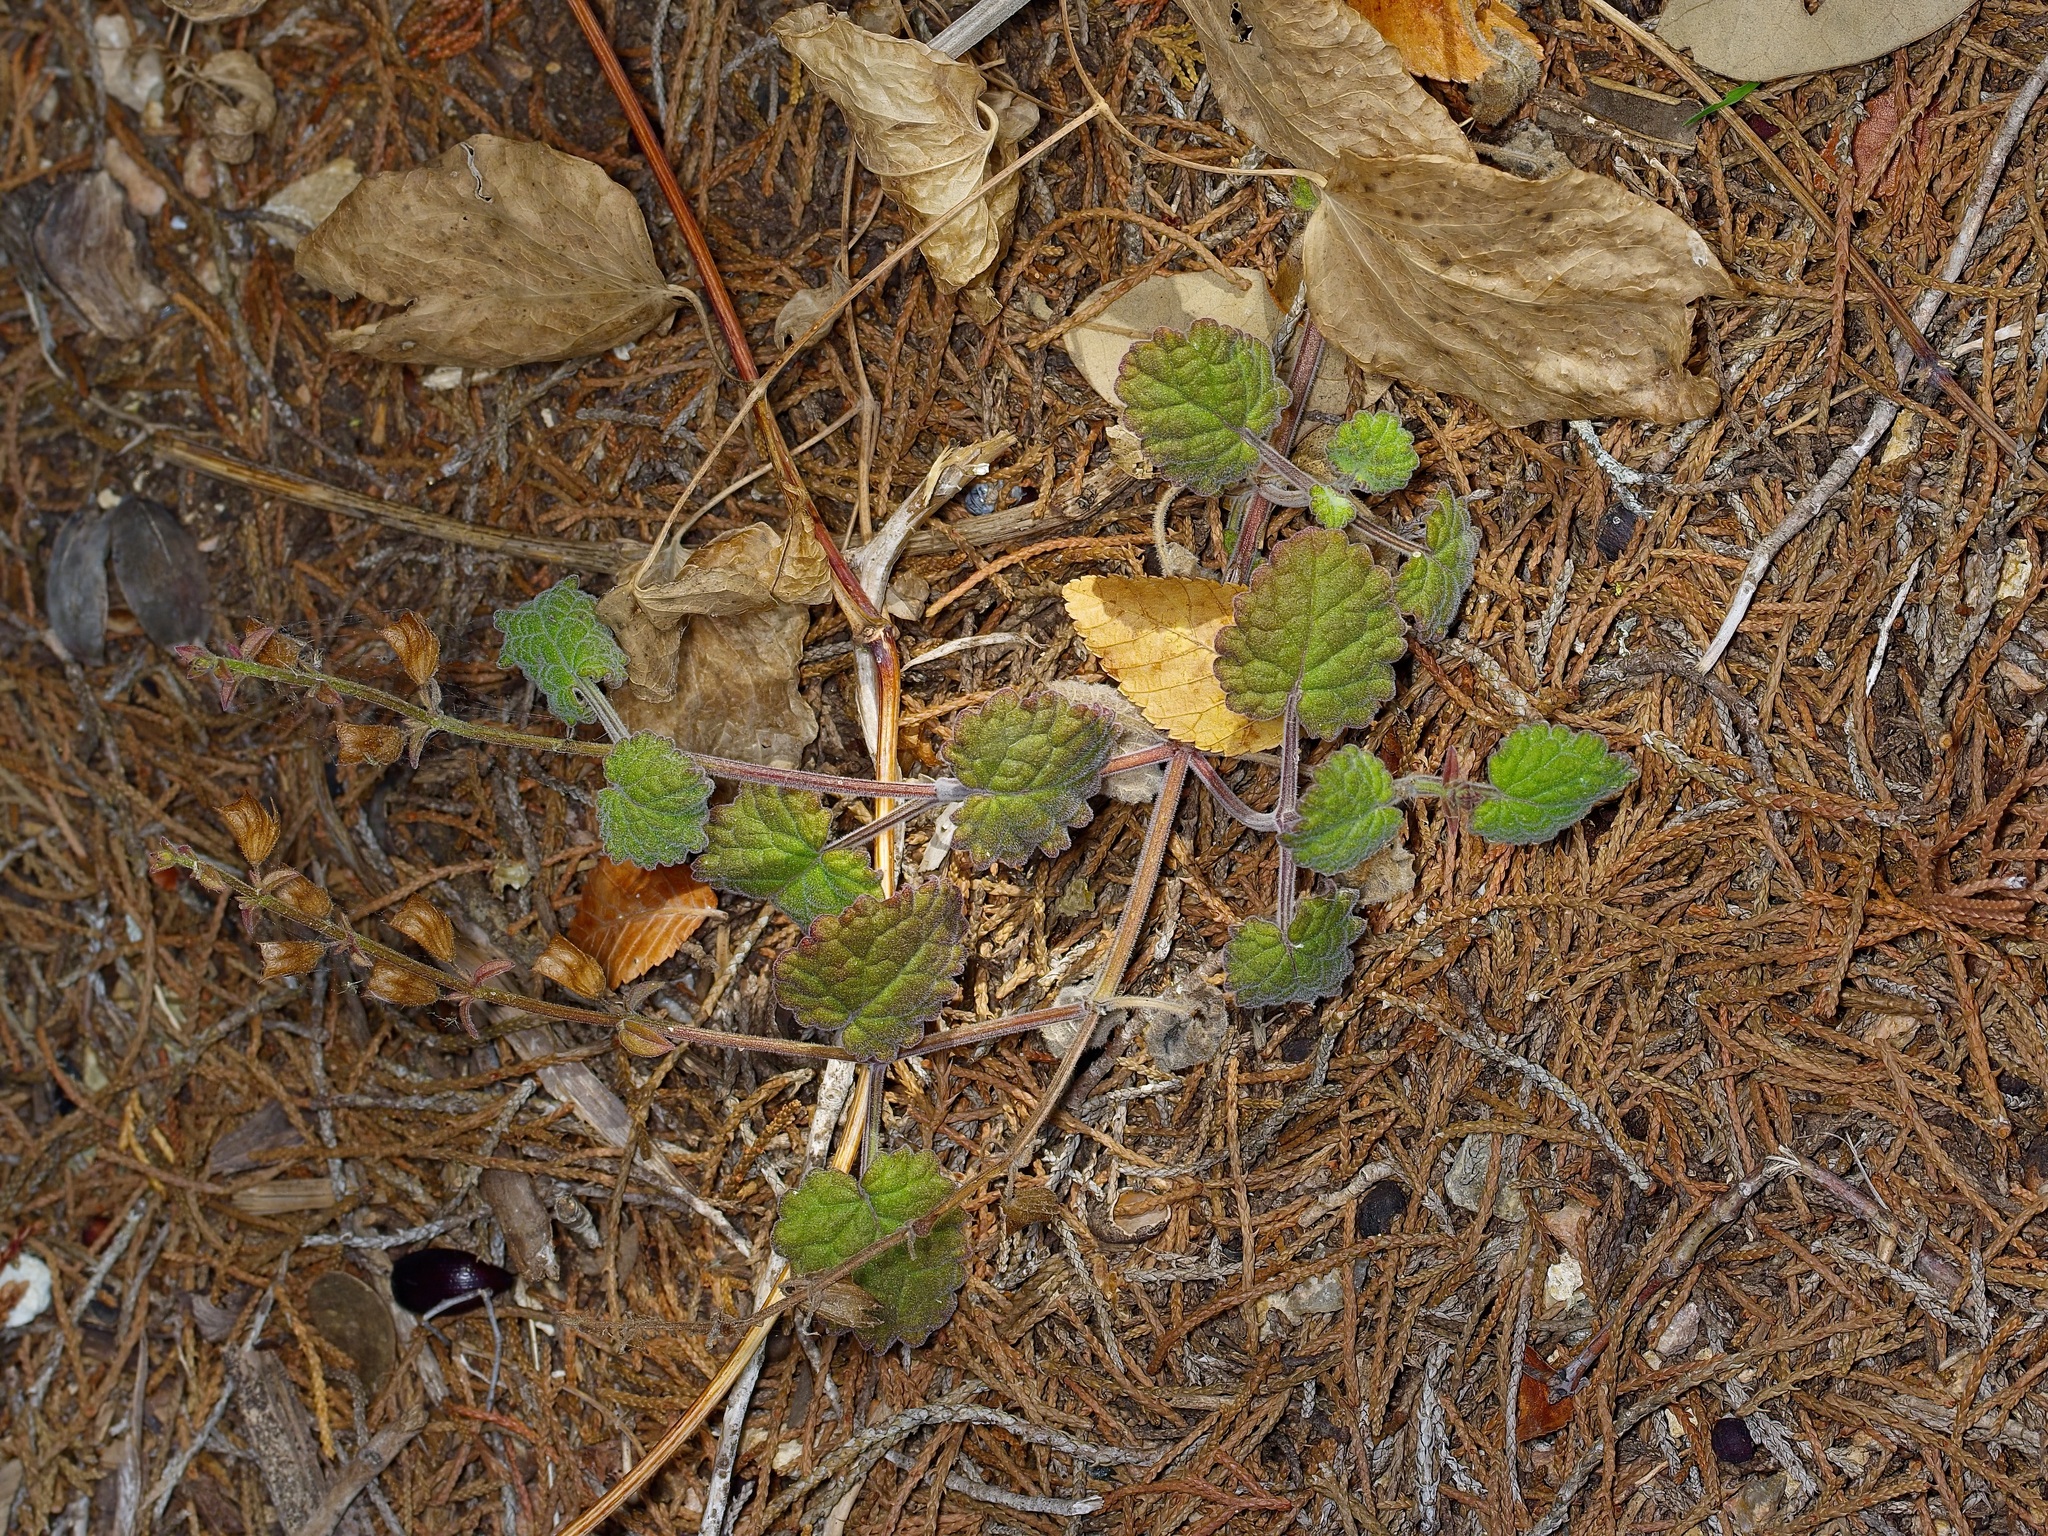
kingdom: Plantae
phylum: Tracheophyta
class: Magnoliopsida
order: Lamiales
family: Lamiaceae
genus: Salvia
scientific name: Salvia roemeriana
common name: Cedar sage
